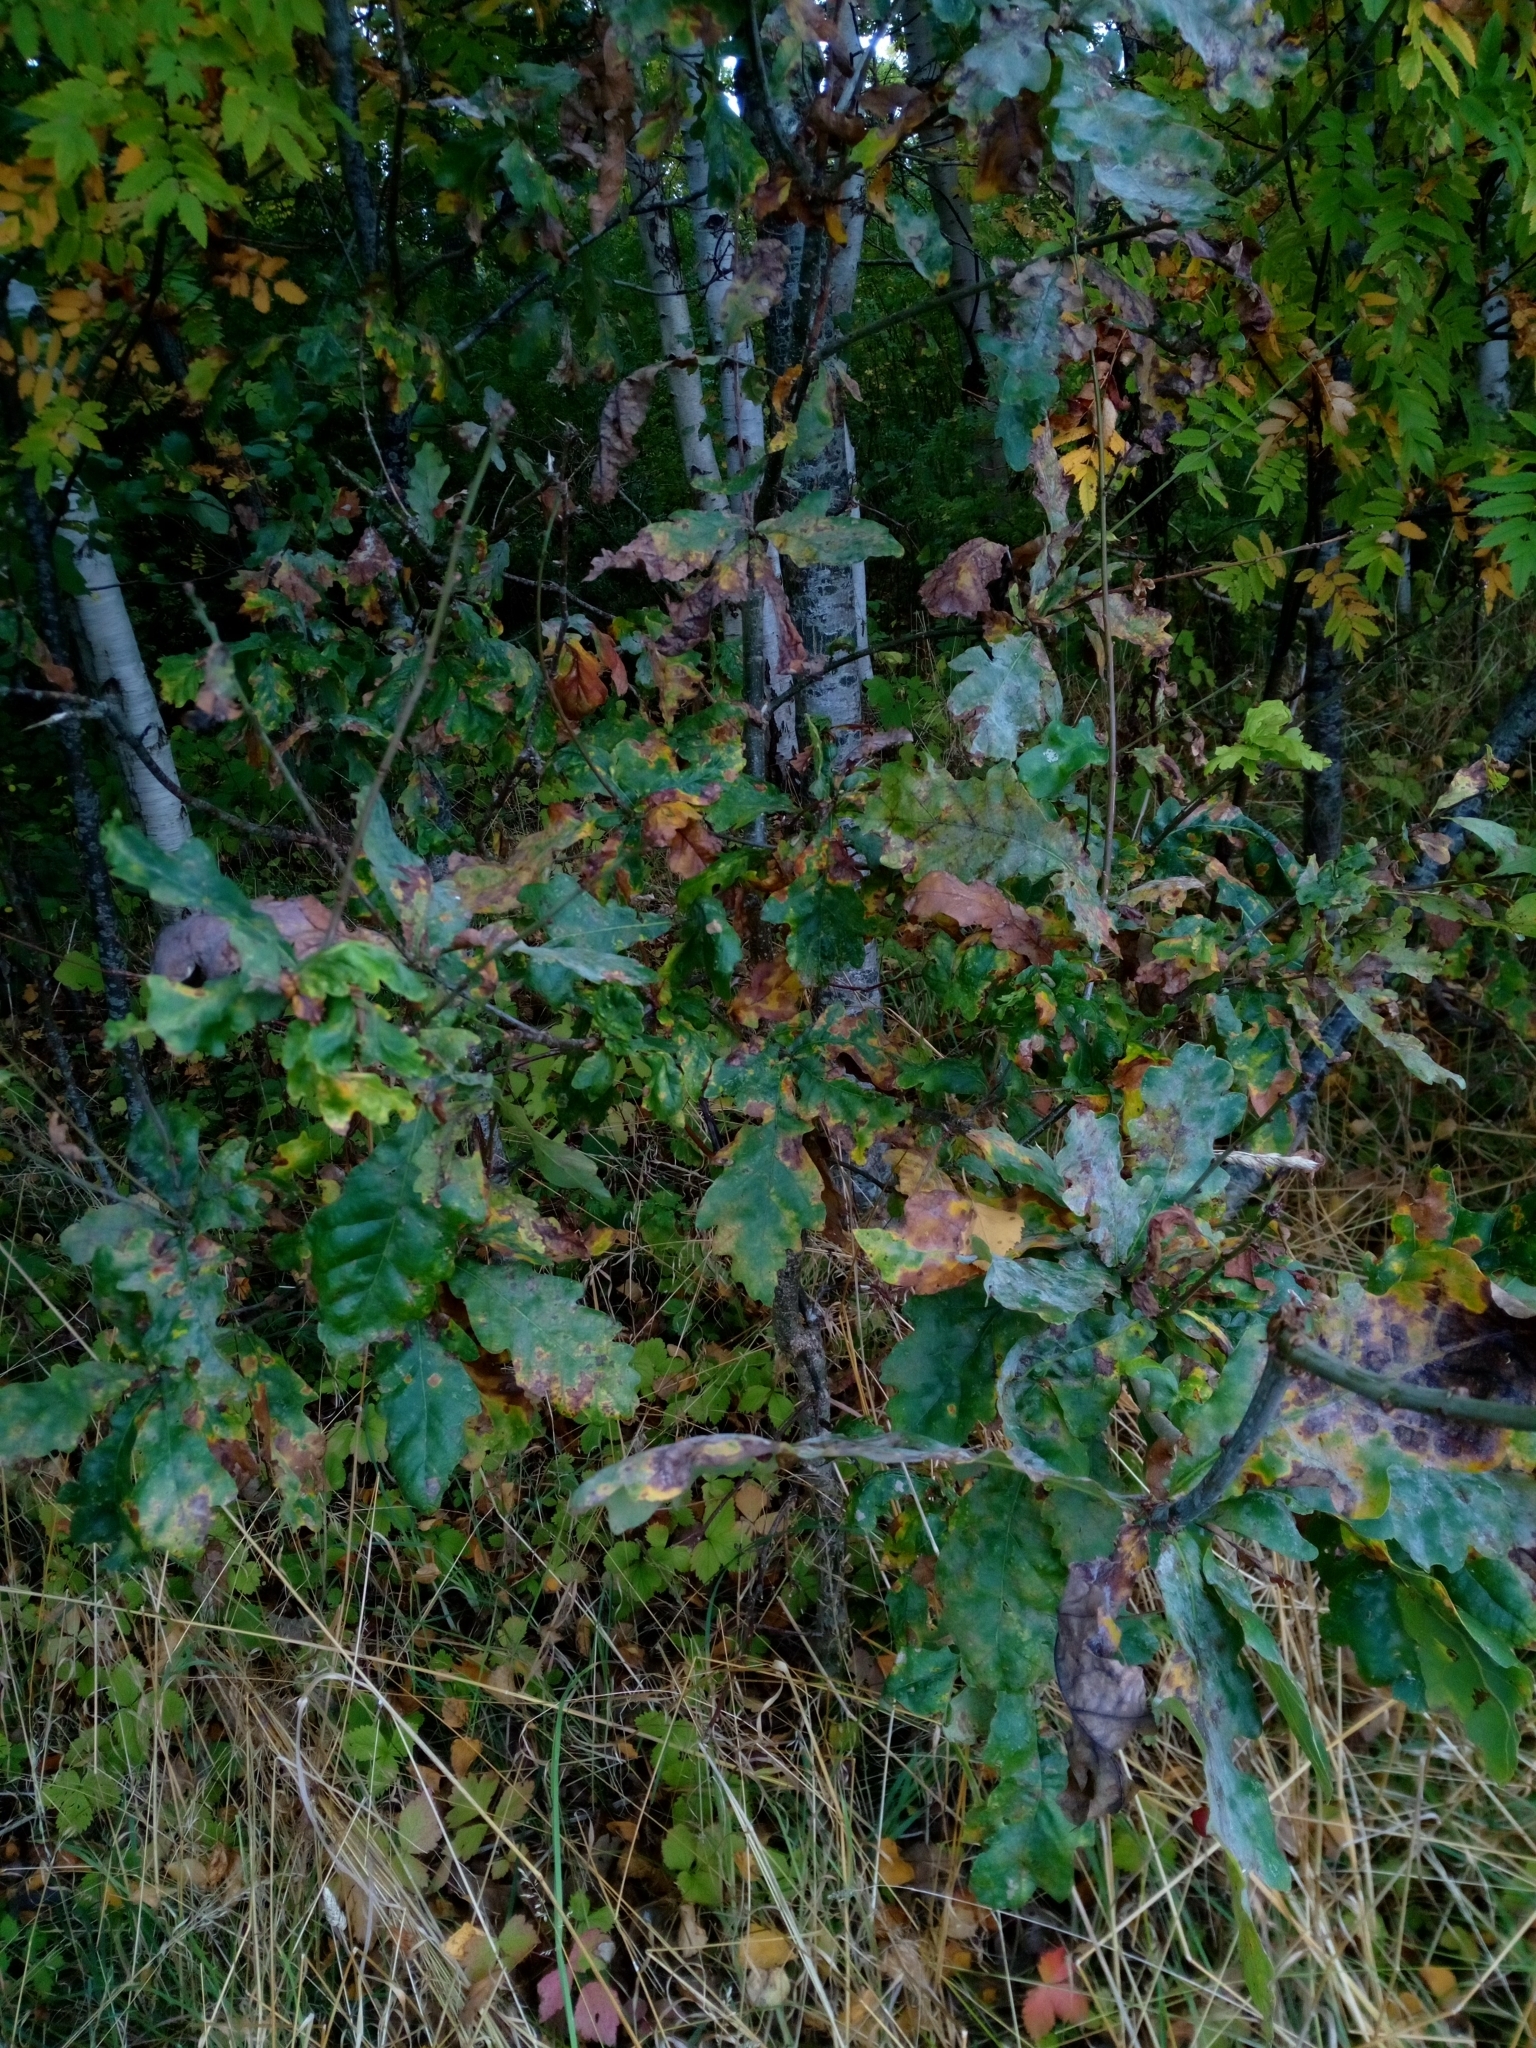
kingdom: Plantae
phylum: Tracheophyta
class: Magnoliopsida
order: Fagales
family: Fagaceae
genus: Quercus
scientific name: Quercus robur
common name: Pedunculate oak
